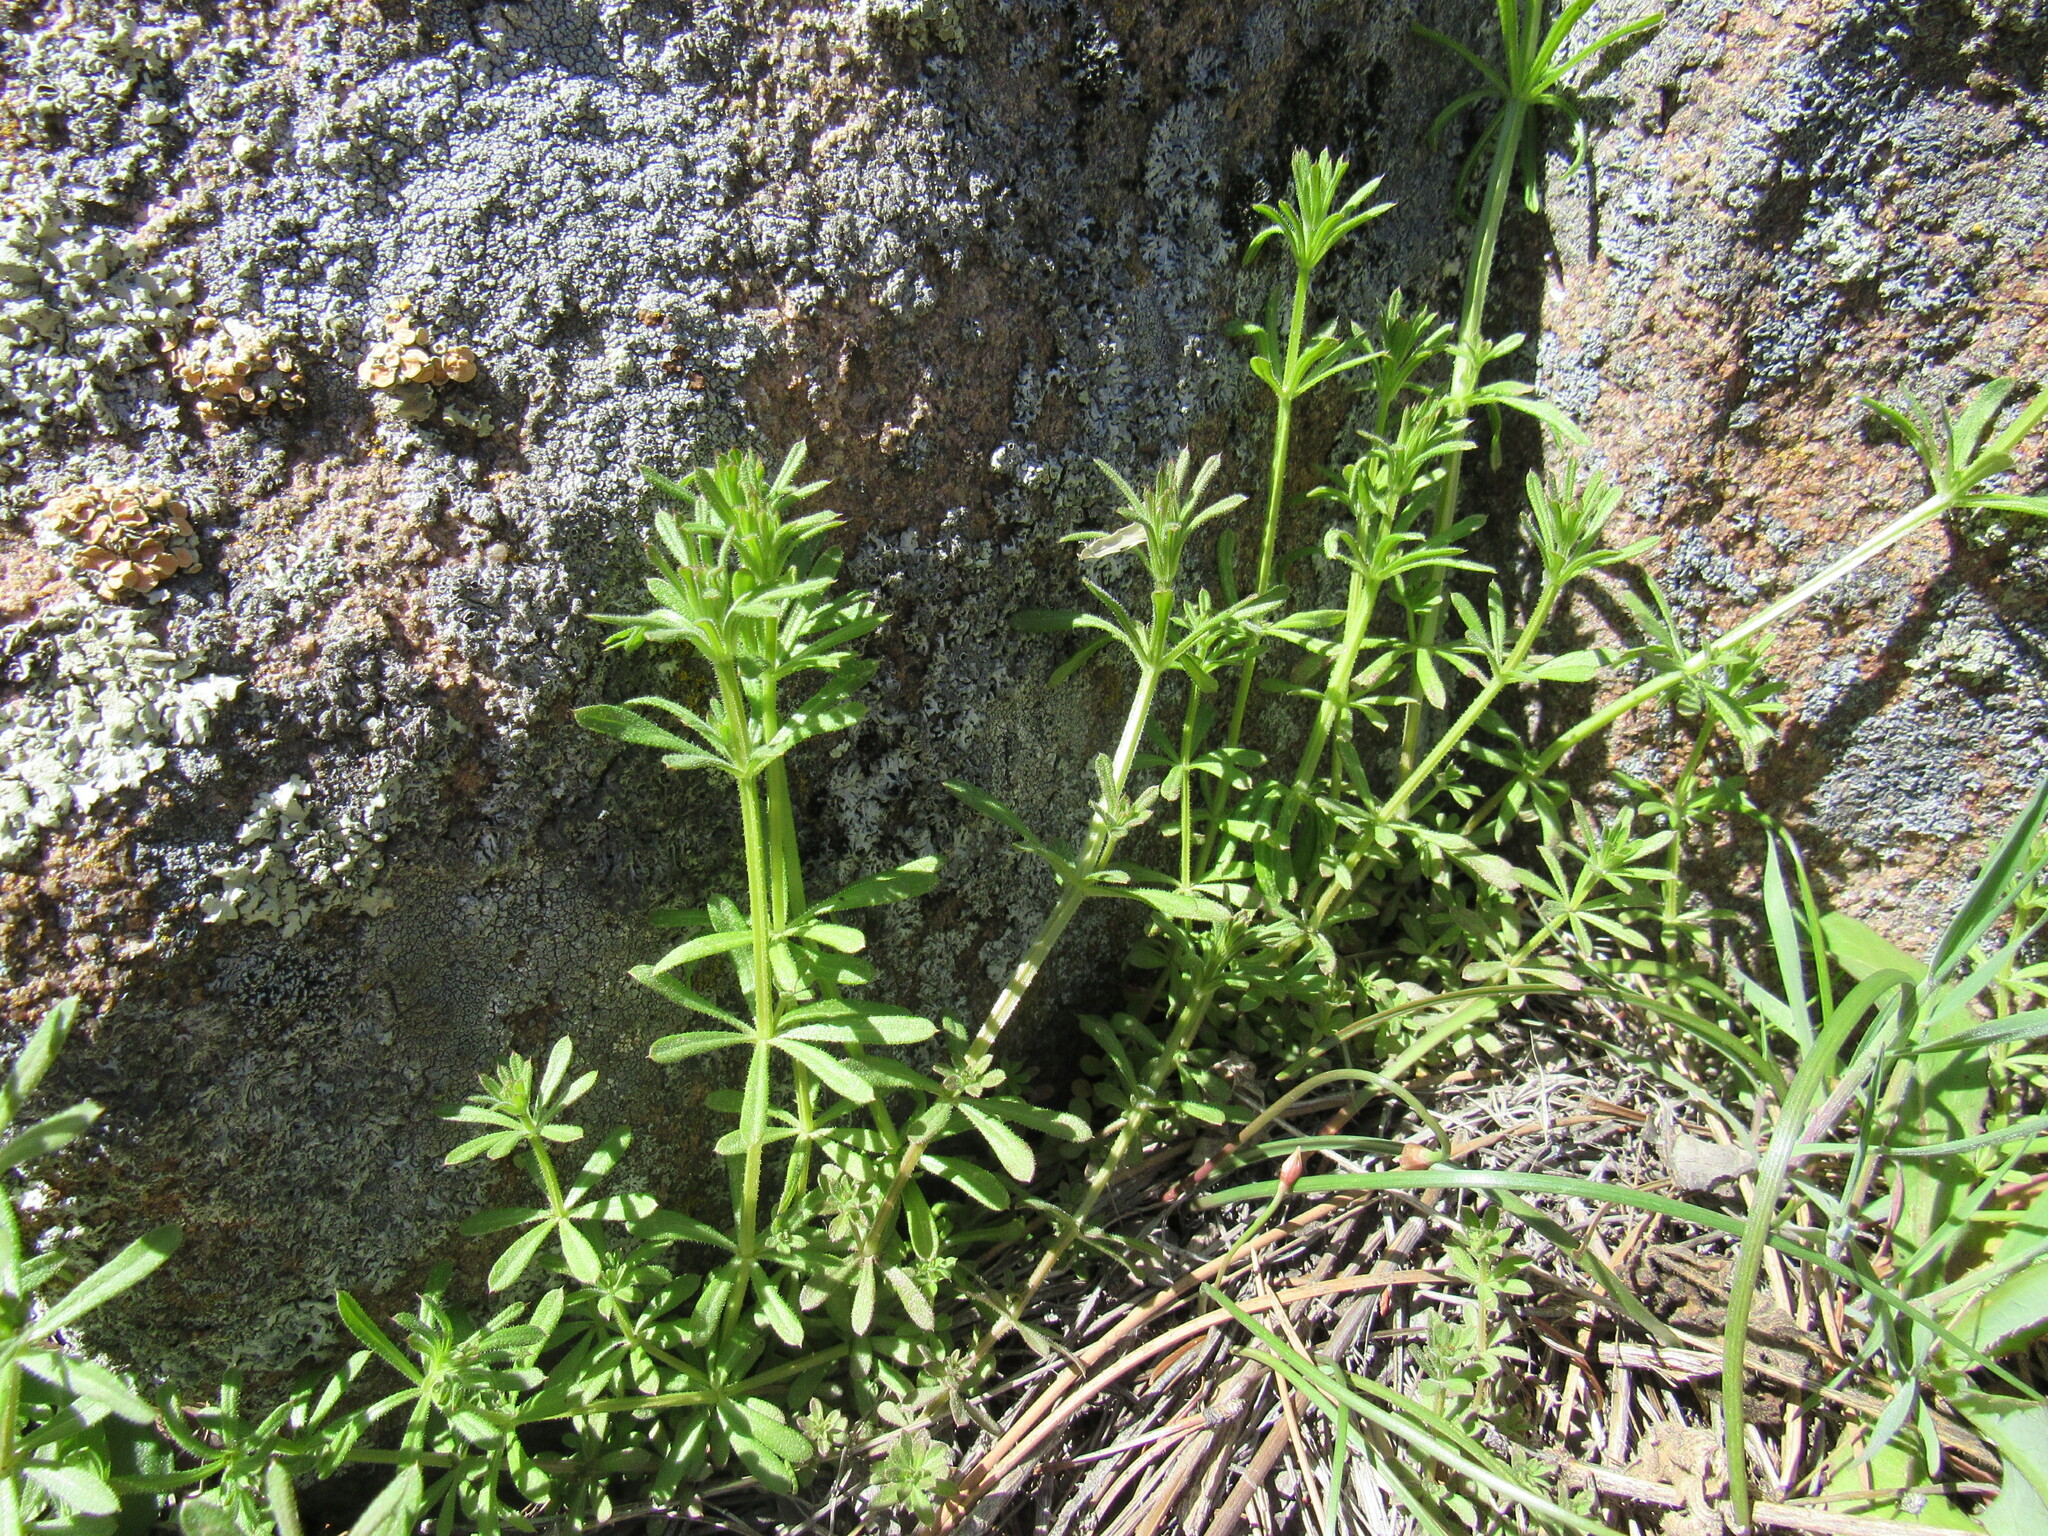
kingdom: Plantae
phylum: Tracheophyta
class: Magnoliopsida
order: Gentianales
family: Rubiaceae
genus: Galium
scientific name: Galium aparine
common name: Cleavers
